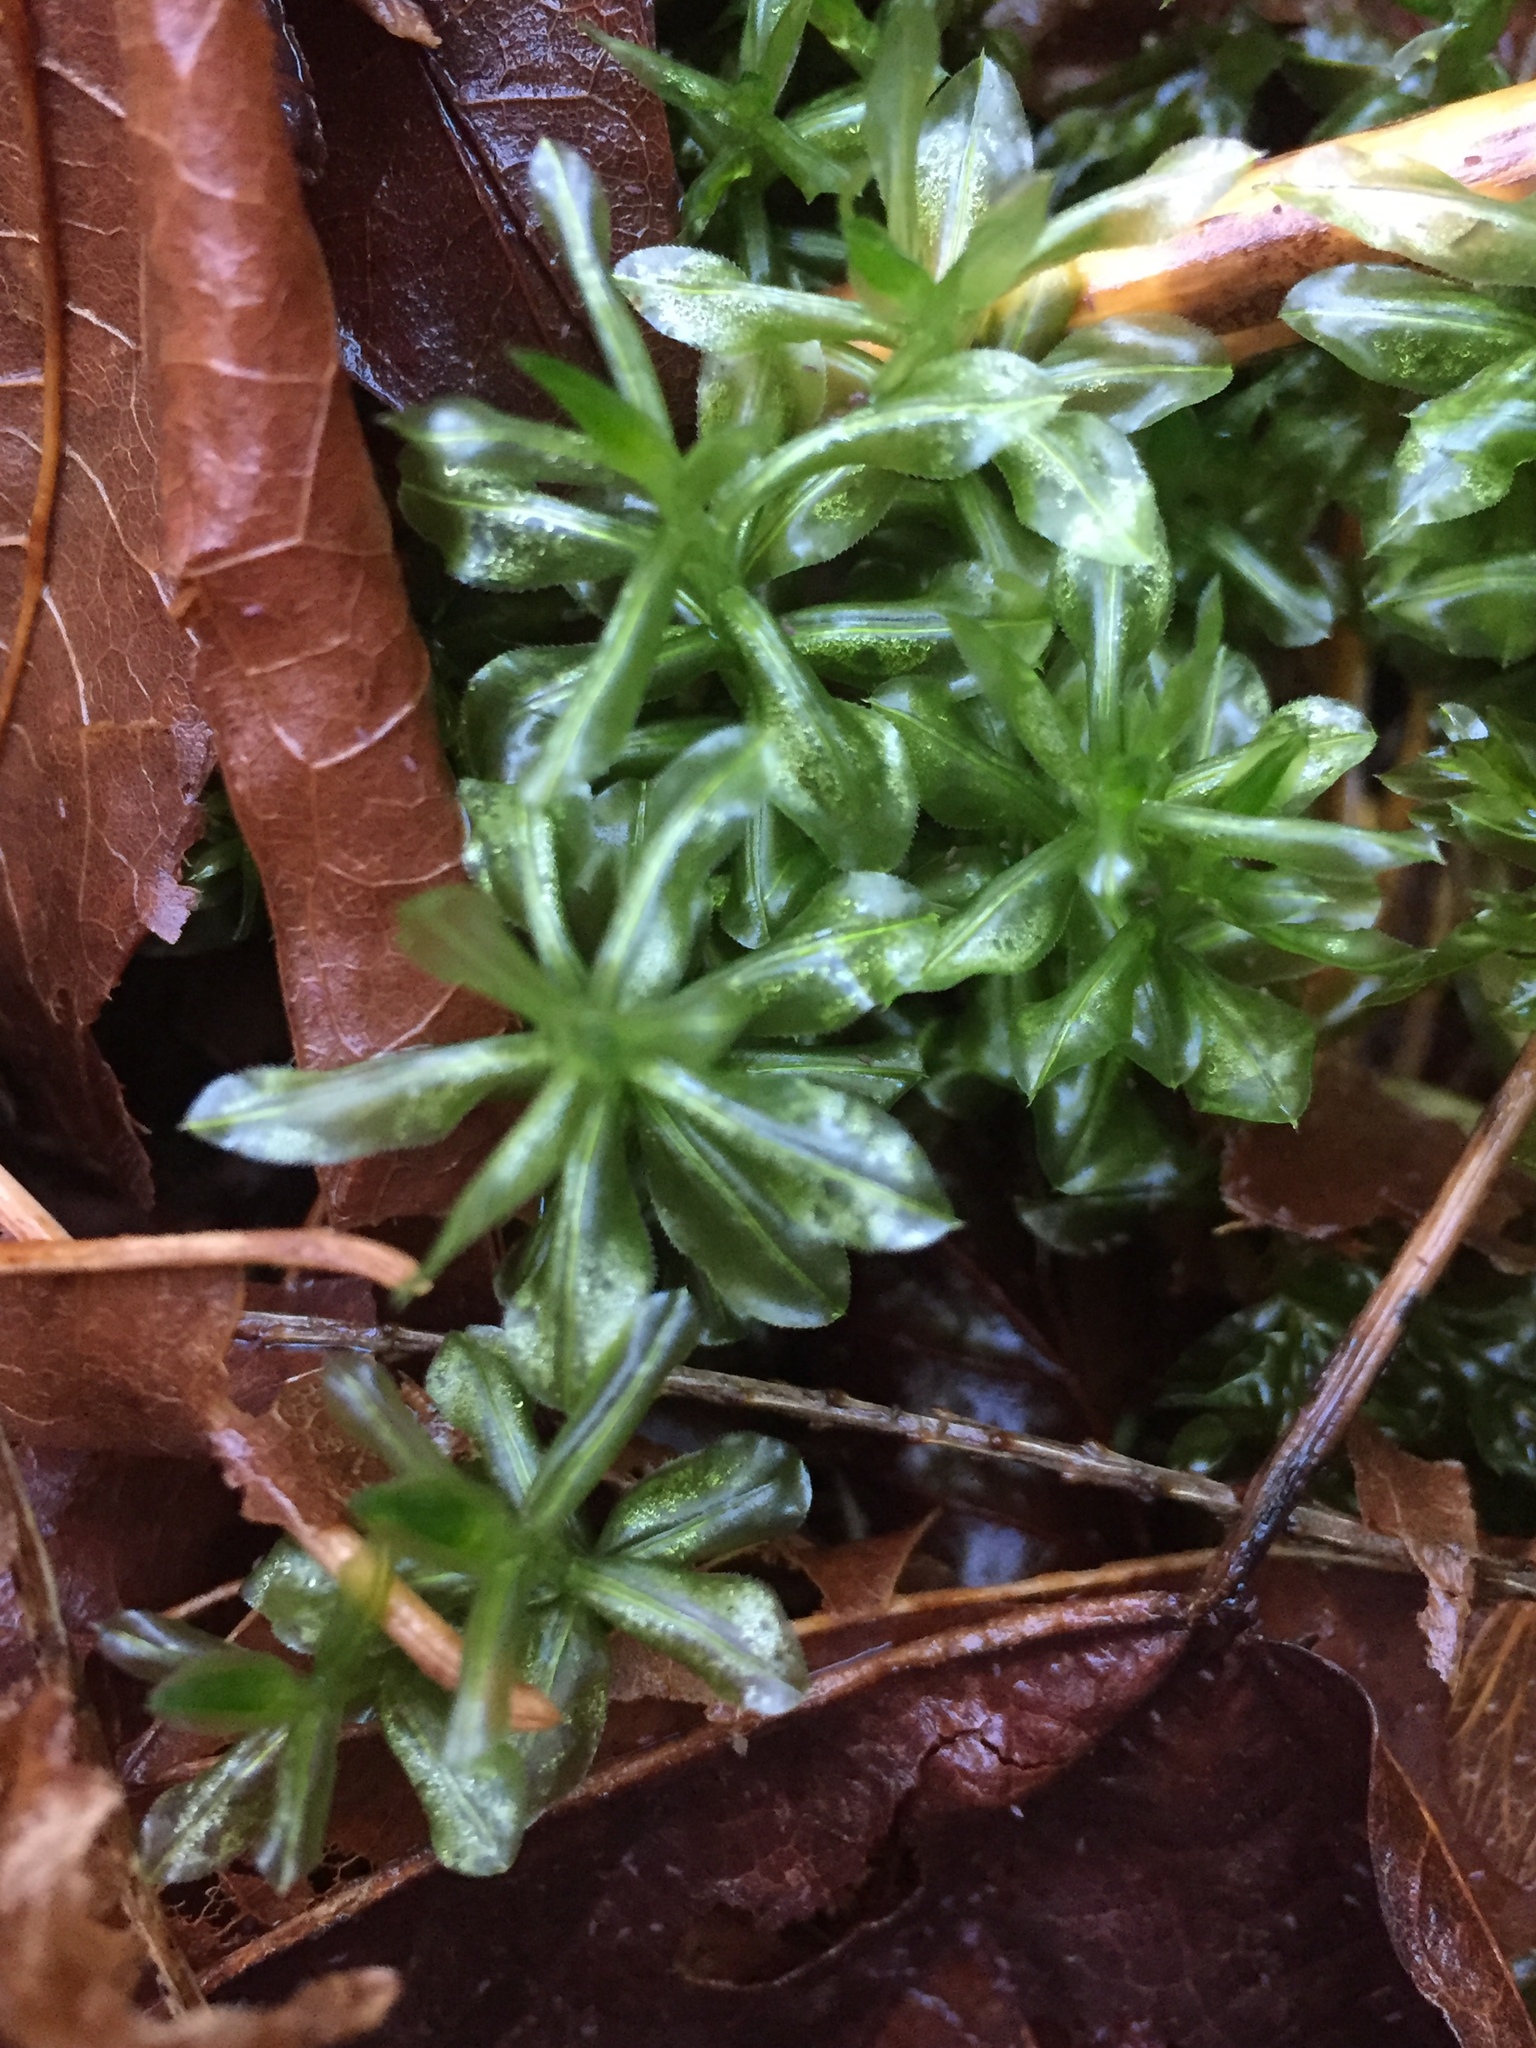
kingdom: Plantae
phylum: Bryophyta
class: Bryopsida
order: Bryales
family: Mniaceae
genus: Plagiomnium
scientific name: Plagiomnium insigne
